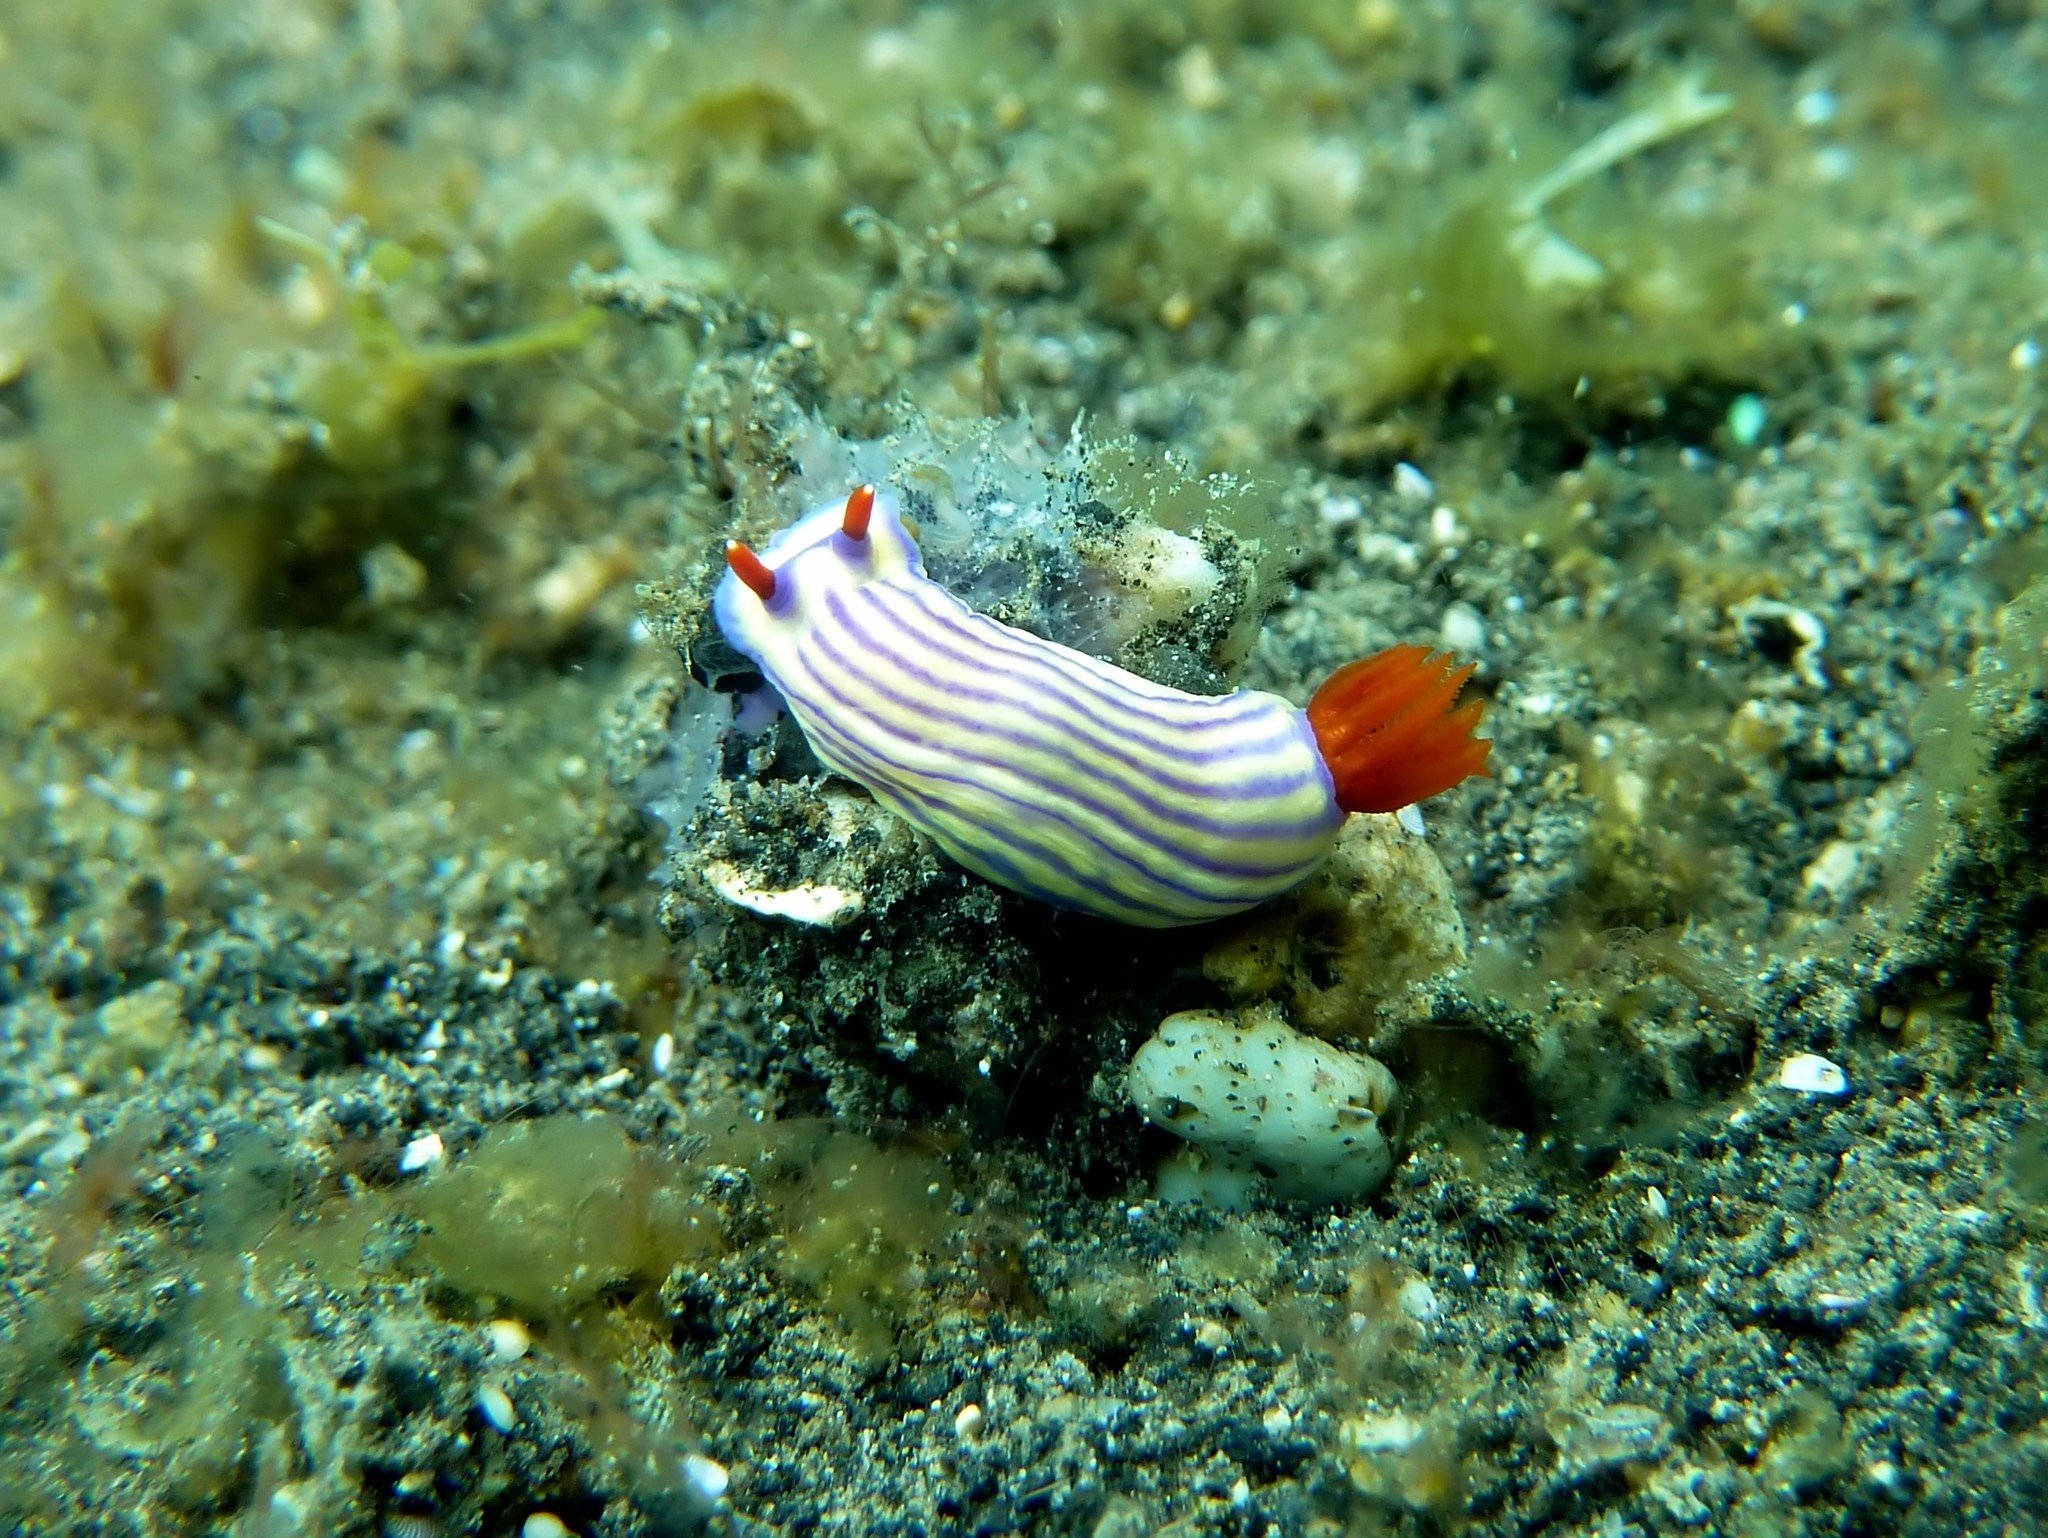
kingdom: Animalia
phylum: Mollusca
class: Gastropoda
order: Nudibranchia
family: Chromodorididae
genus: Hypselodoris
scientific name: Hypselodoris whitei
